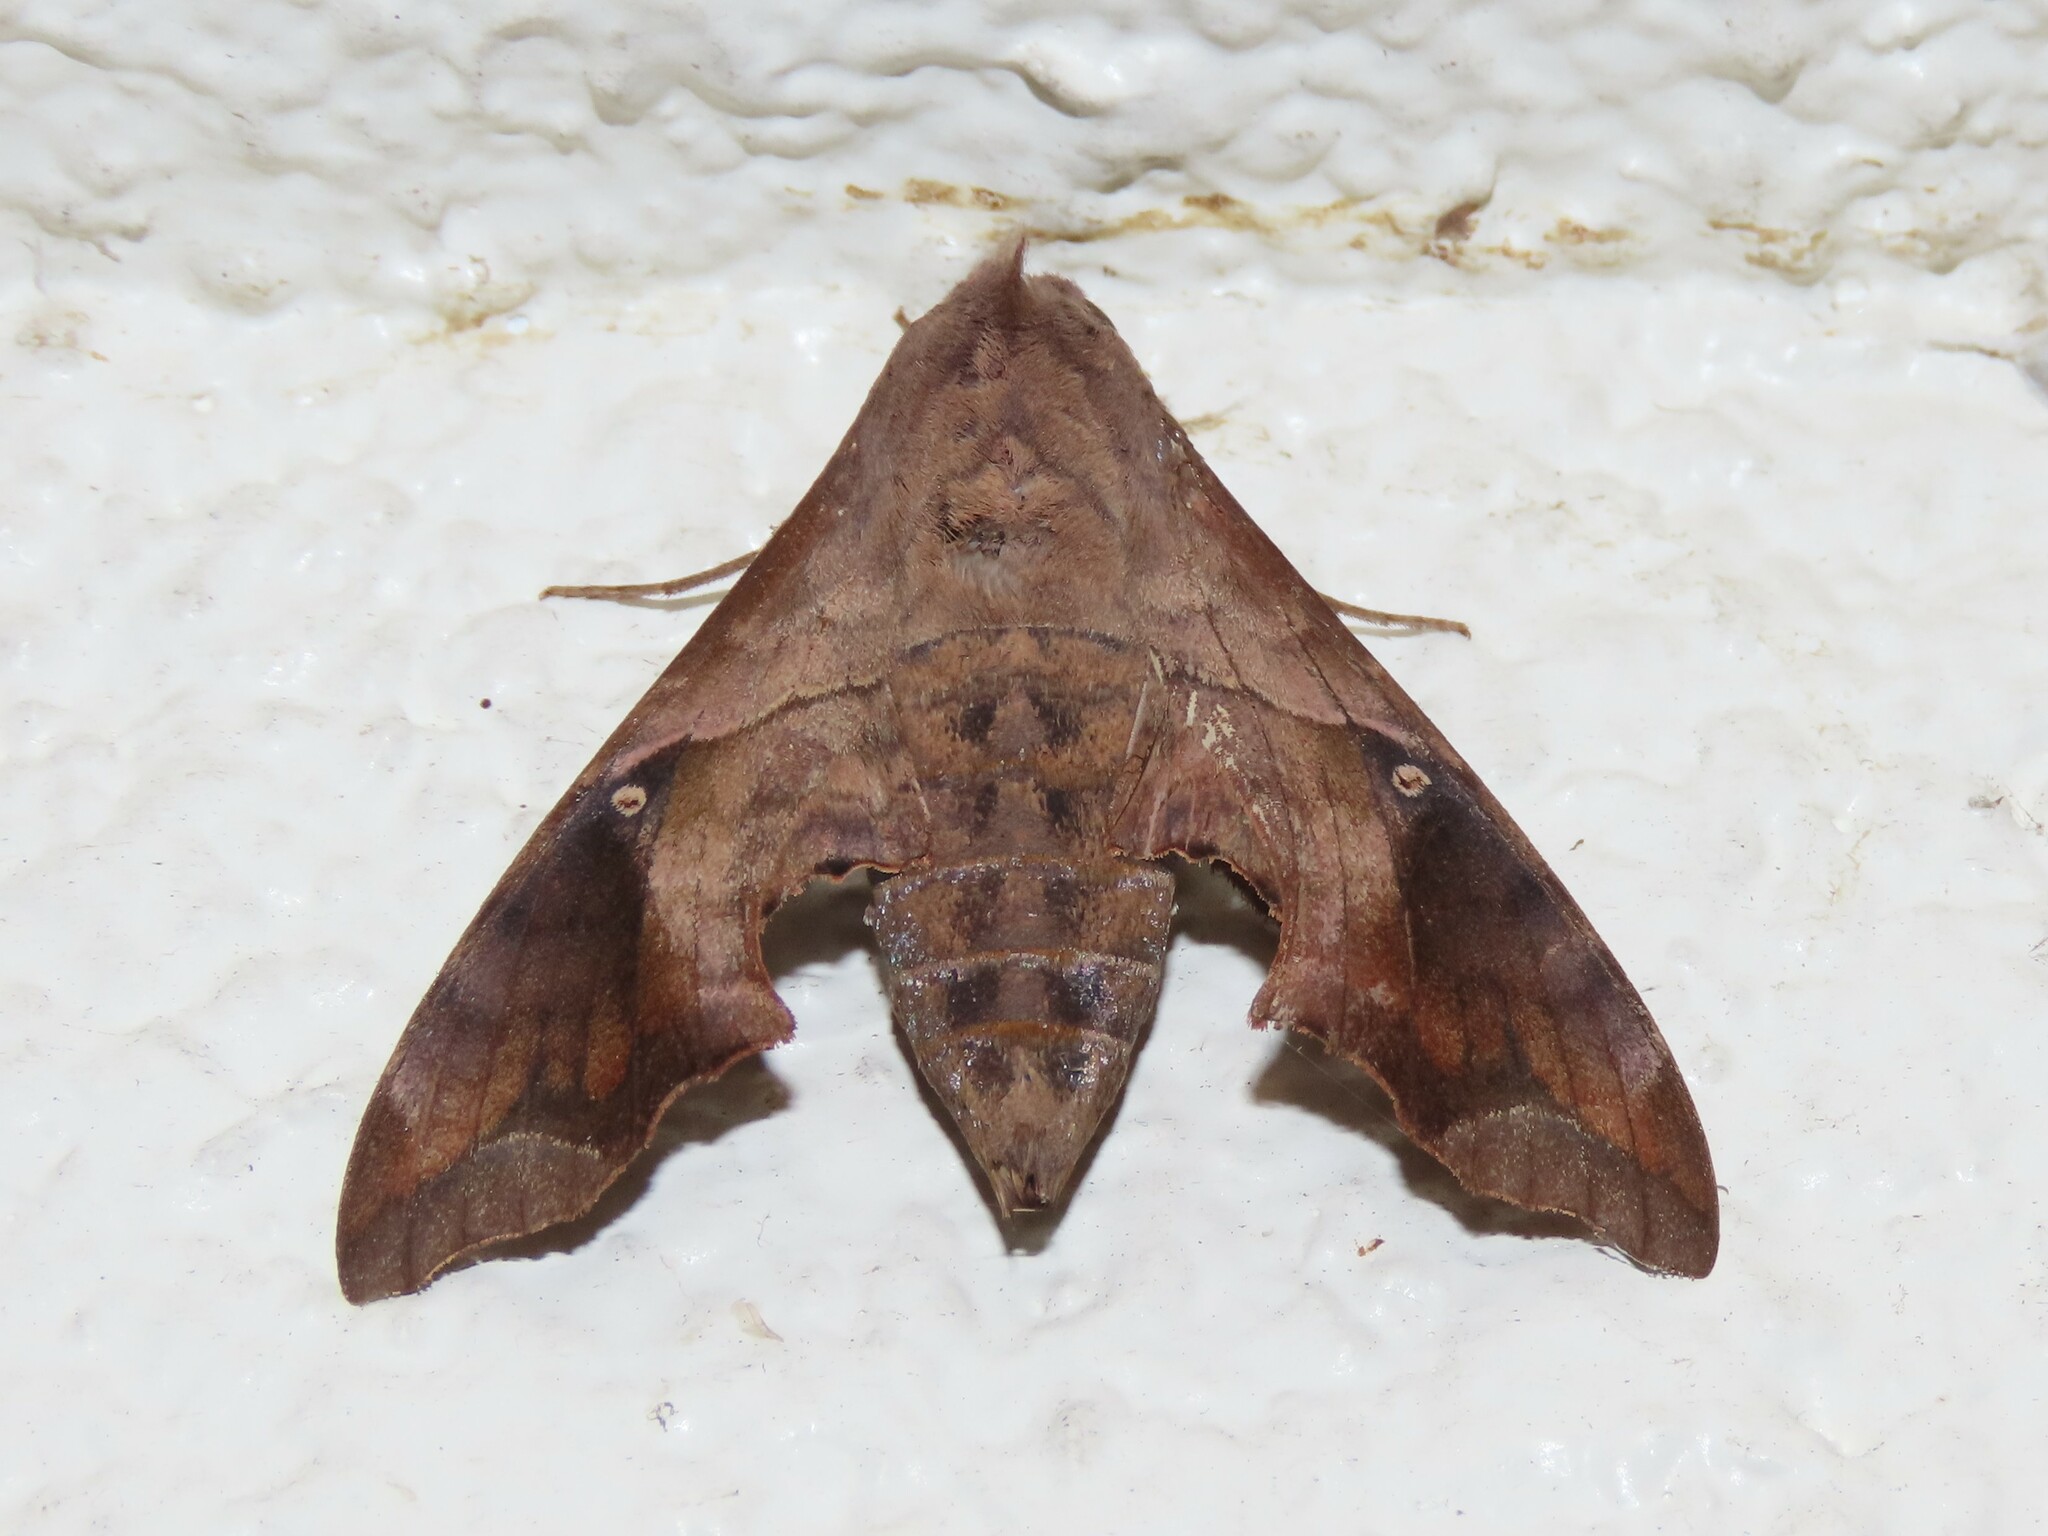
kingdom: Animalia
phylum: Arthropoda
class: Insecta
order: Lepidoptera
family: Sphingidae
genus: Enyo
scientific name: Enyo lugubris
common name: Mournful sphinx
